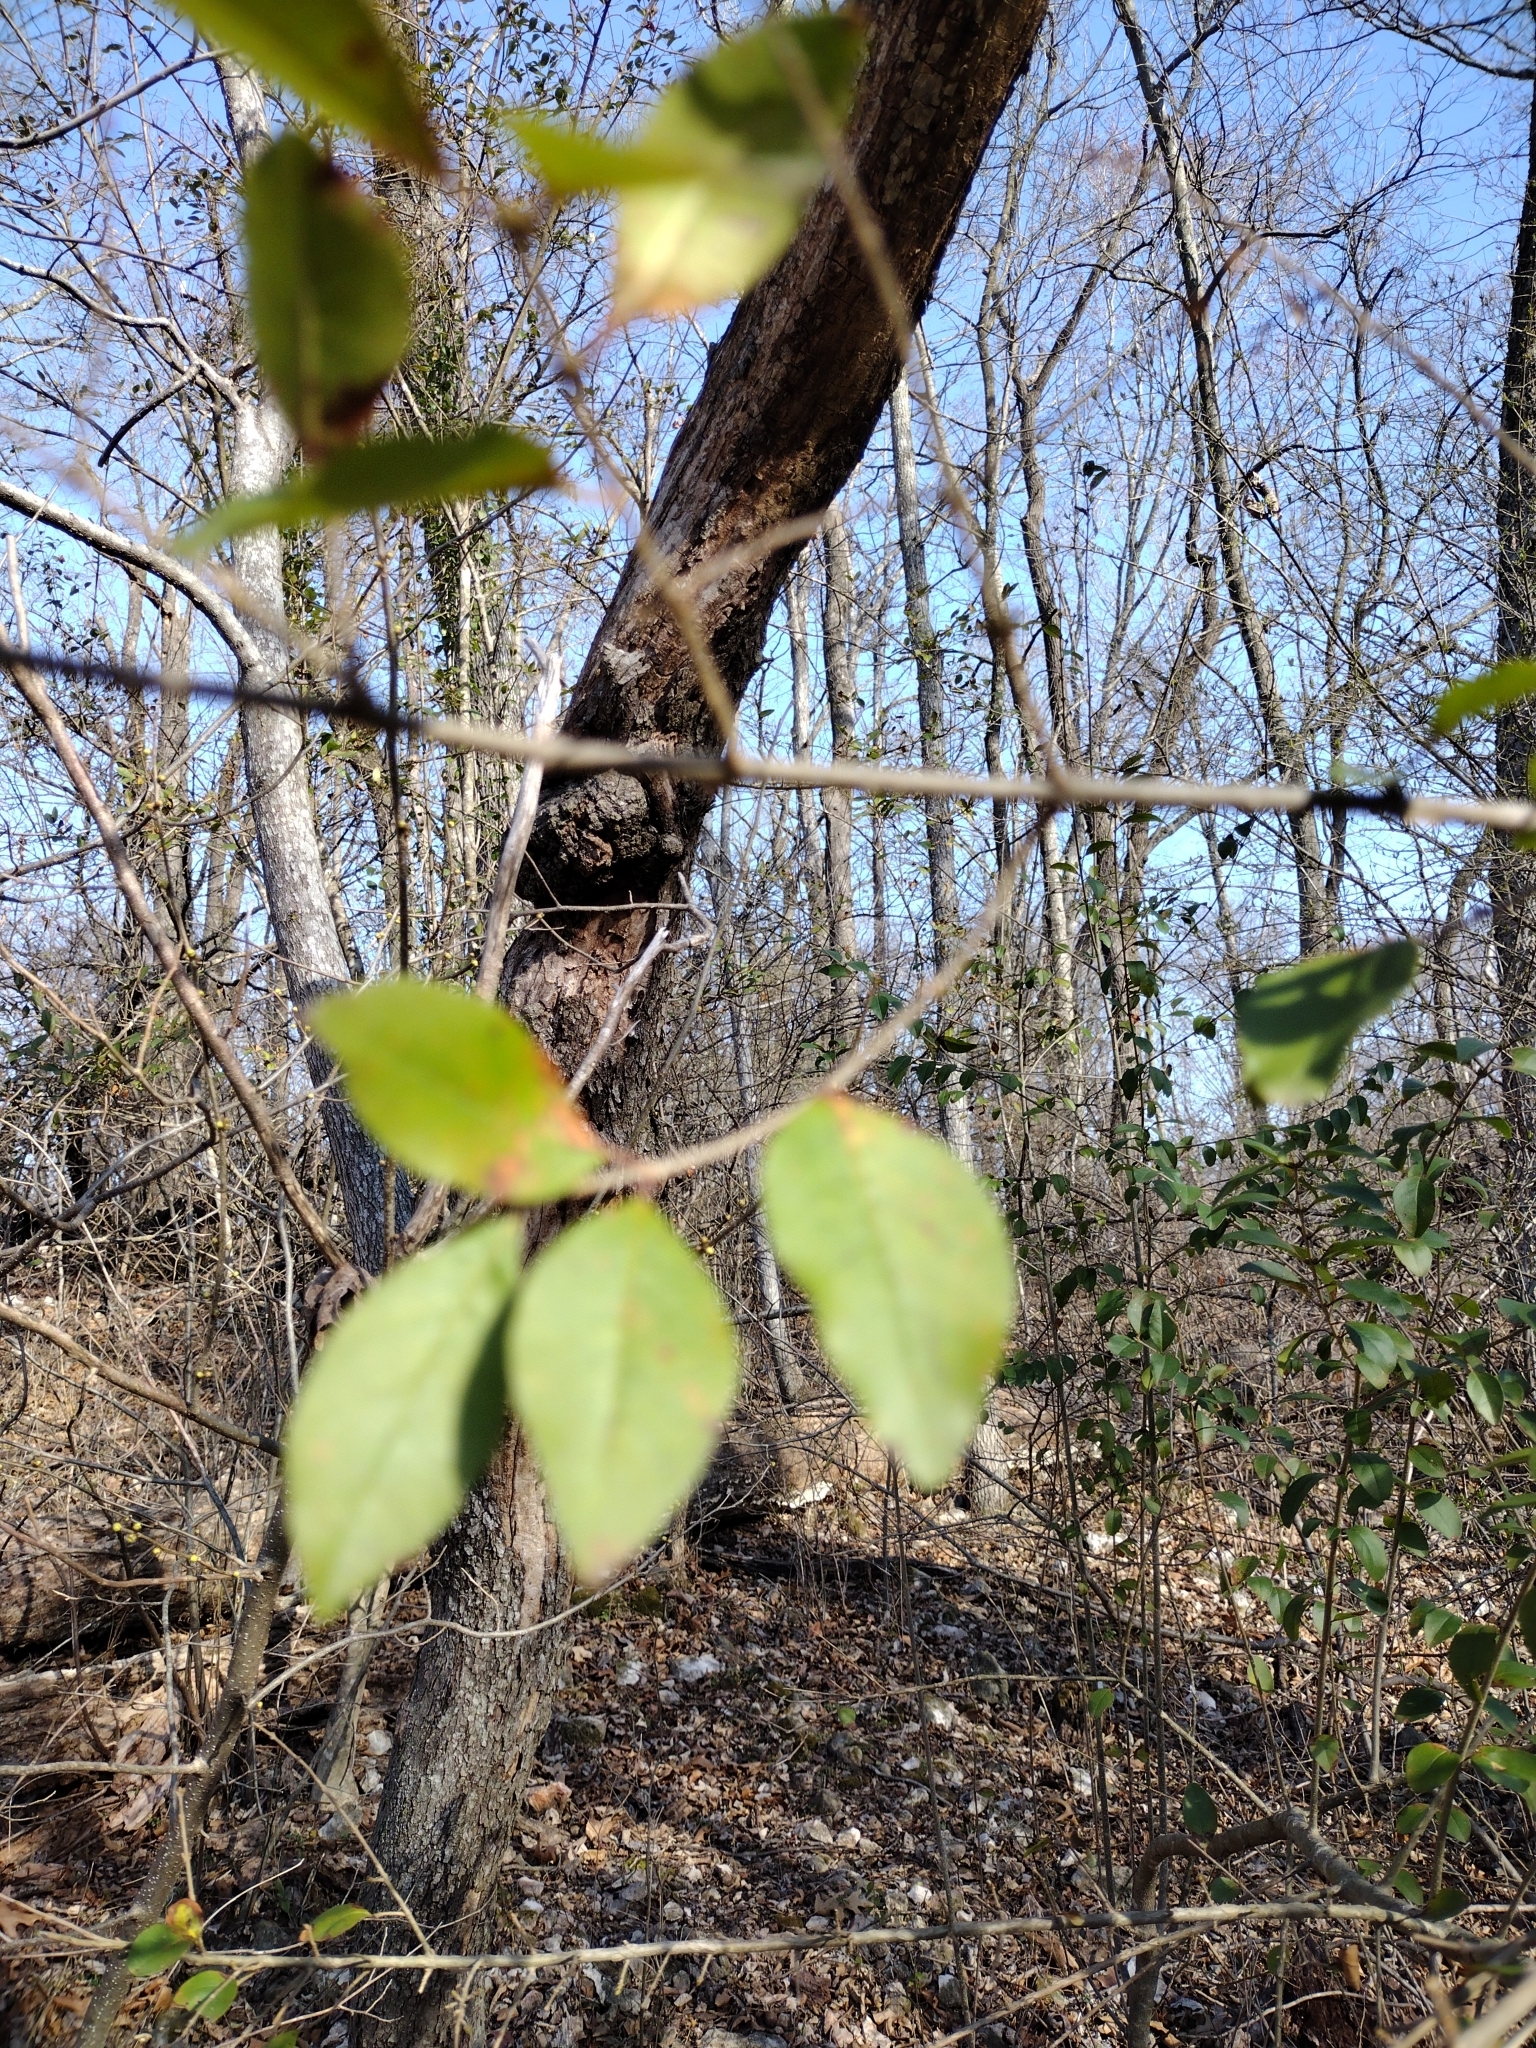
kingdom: Plantae
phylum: Tracheophyta
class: Magnoliopsida
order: Lamiales
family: Oleaceae
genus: Ligustrum
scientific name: Ligustrum sinense
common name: Chinese privet
